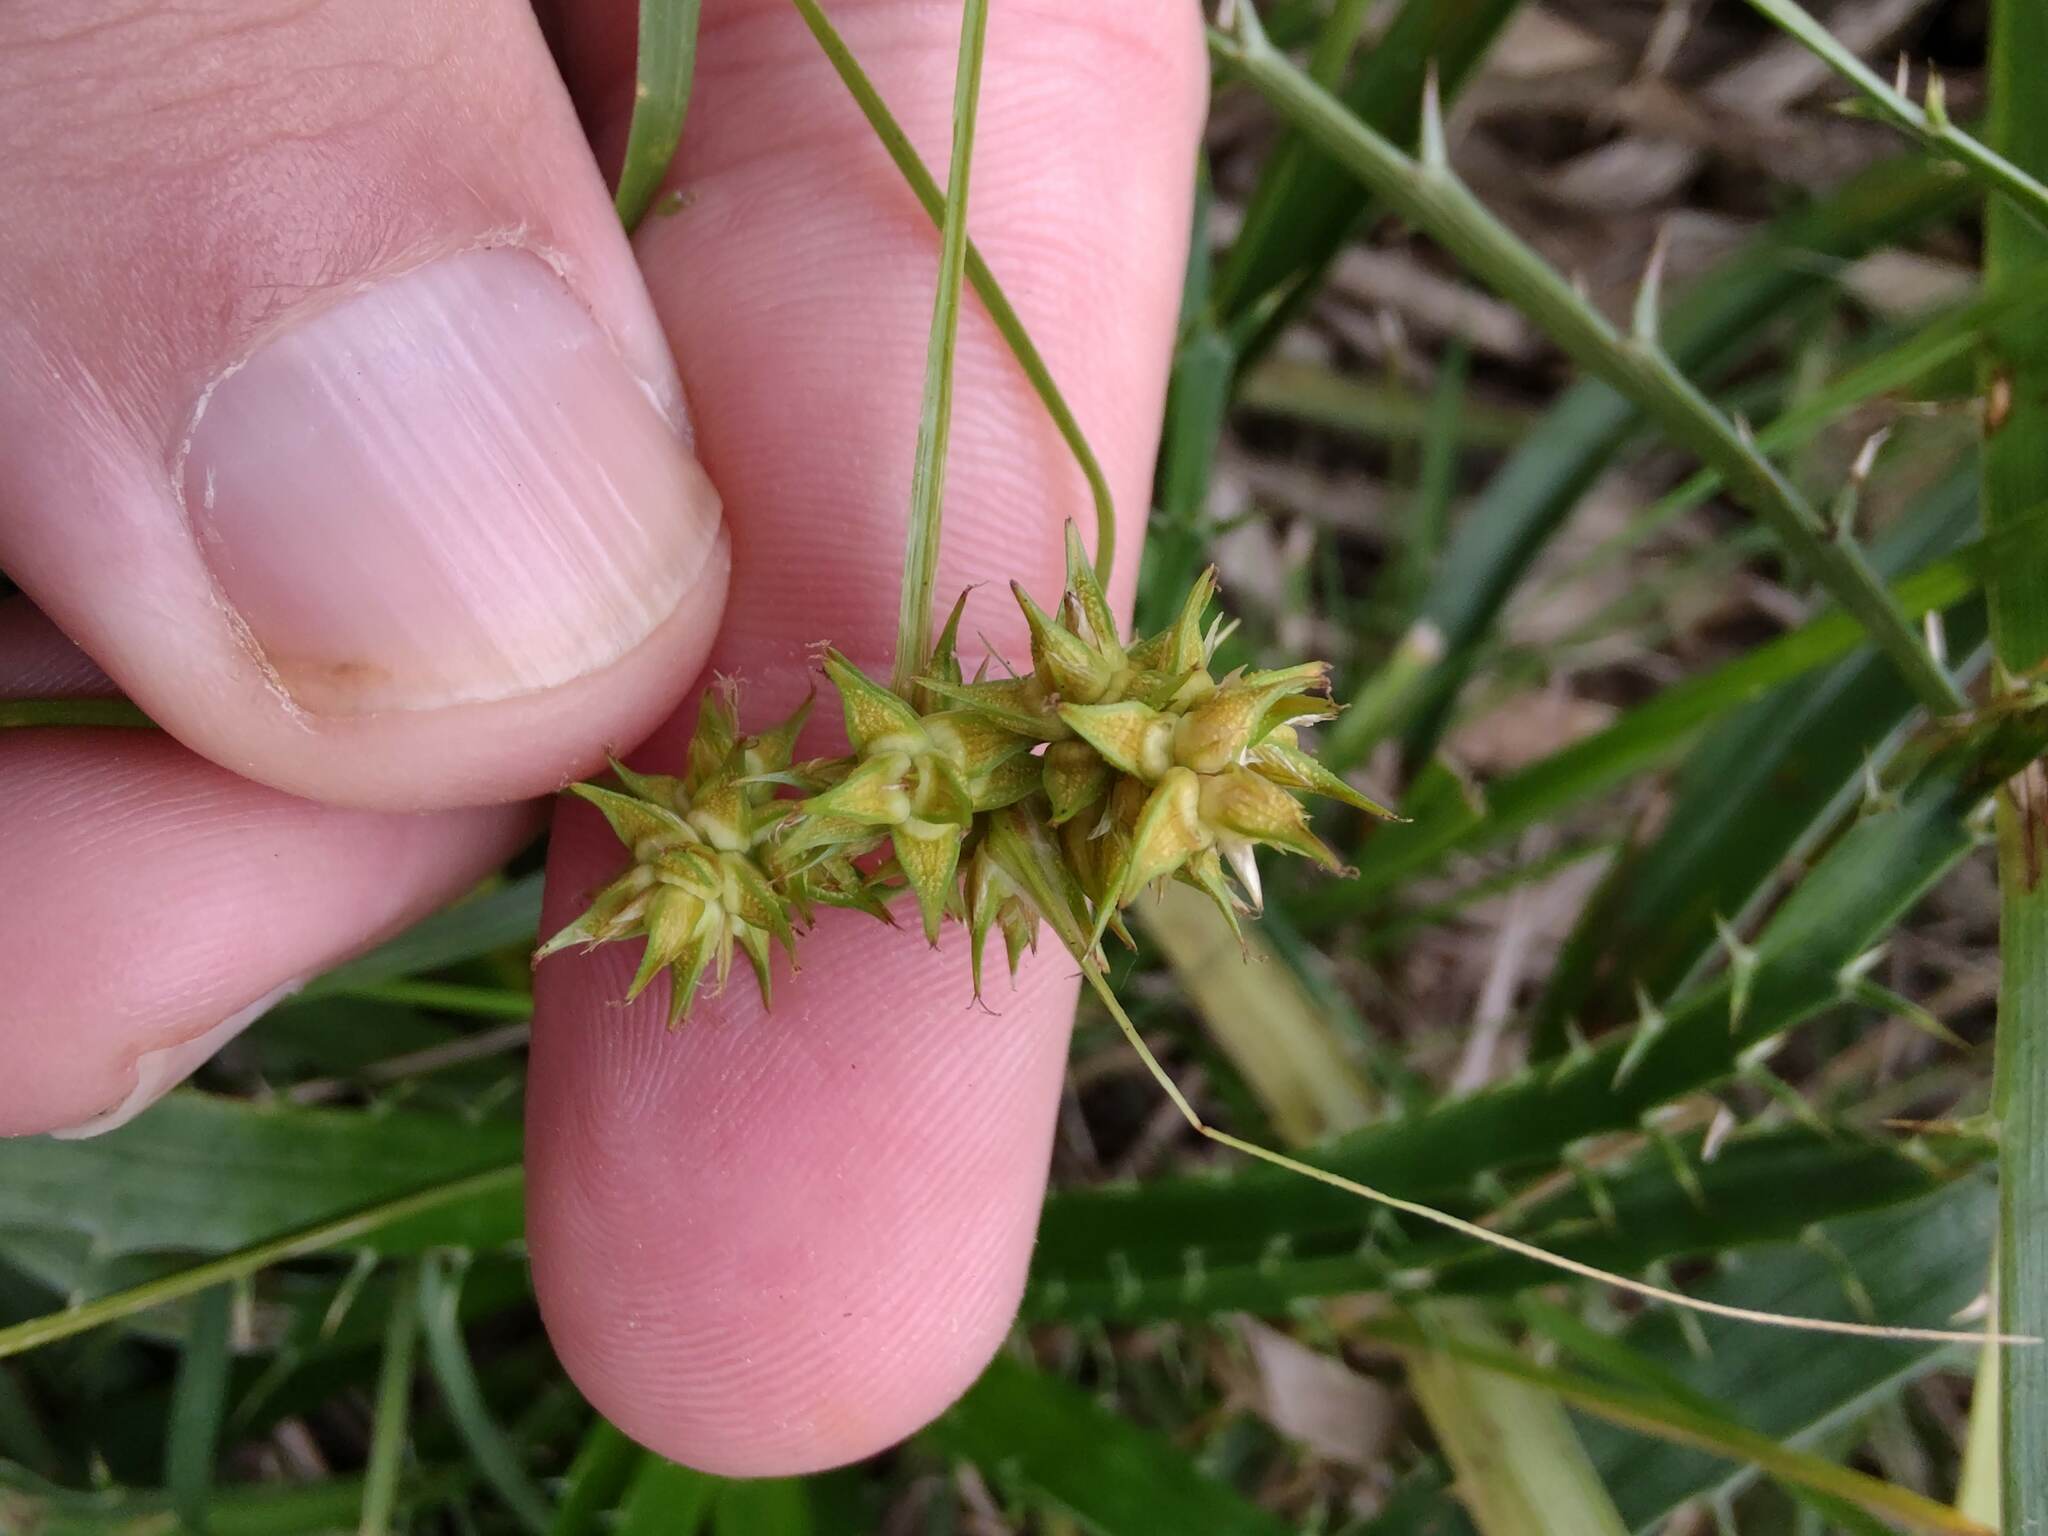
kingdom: Plantae
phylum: Tracheophyta
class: Liliopsida
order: Poales
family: Cyperaceae
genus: Carex
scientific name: Carex bonariensis
